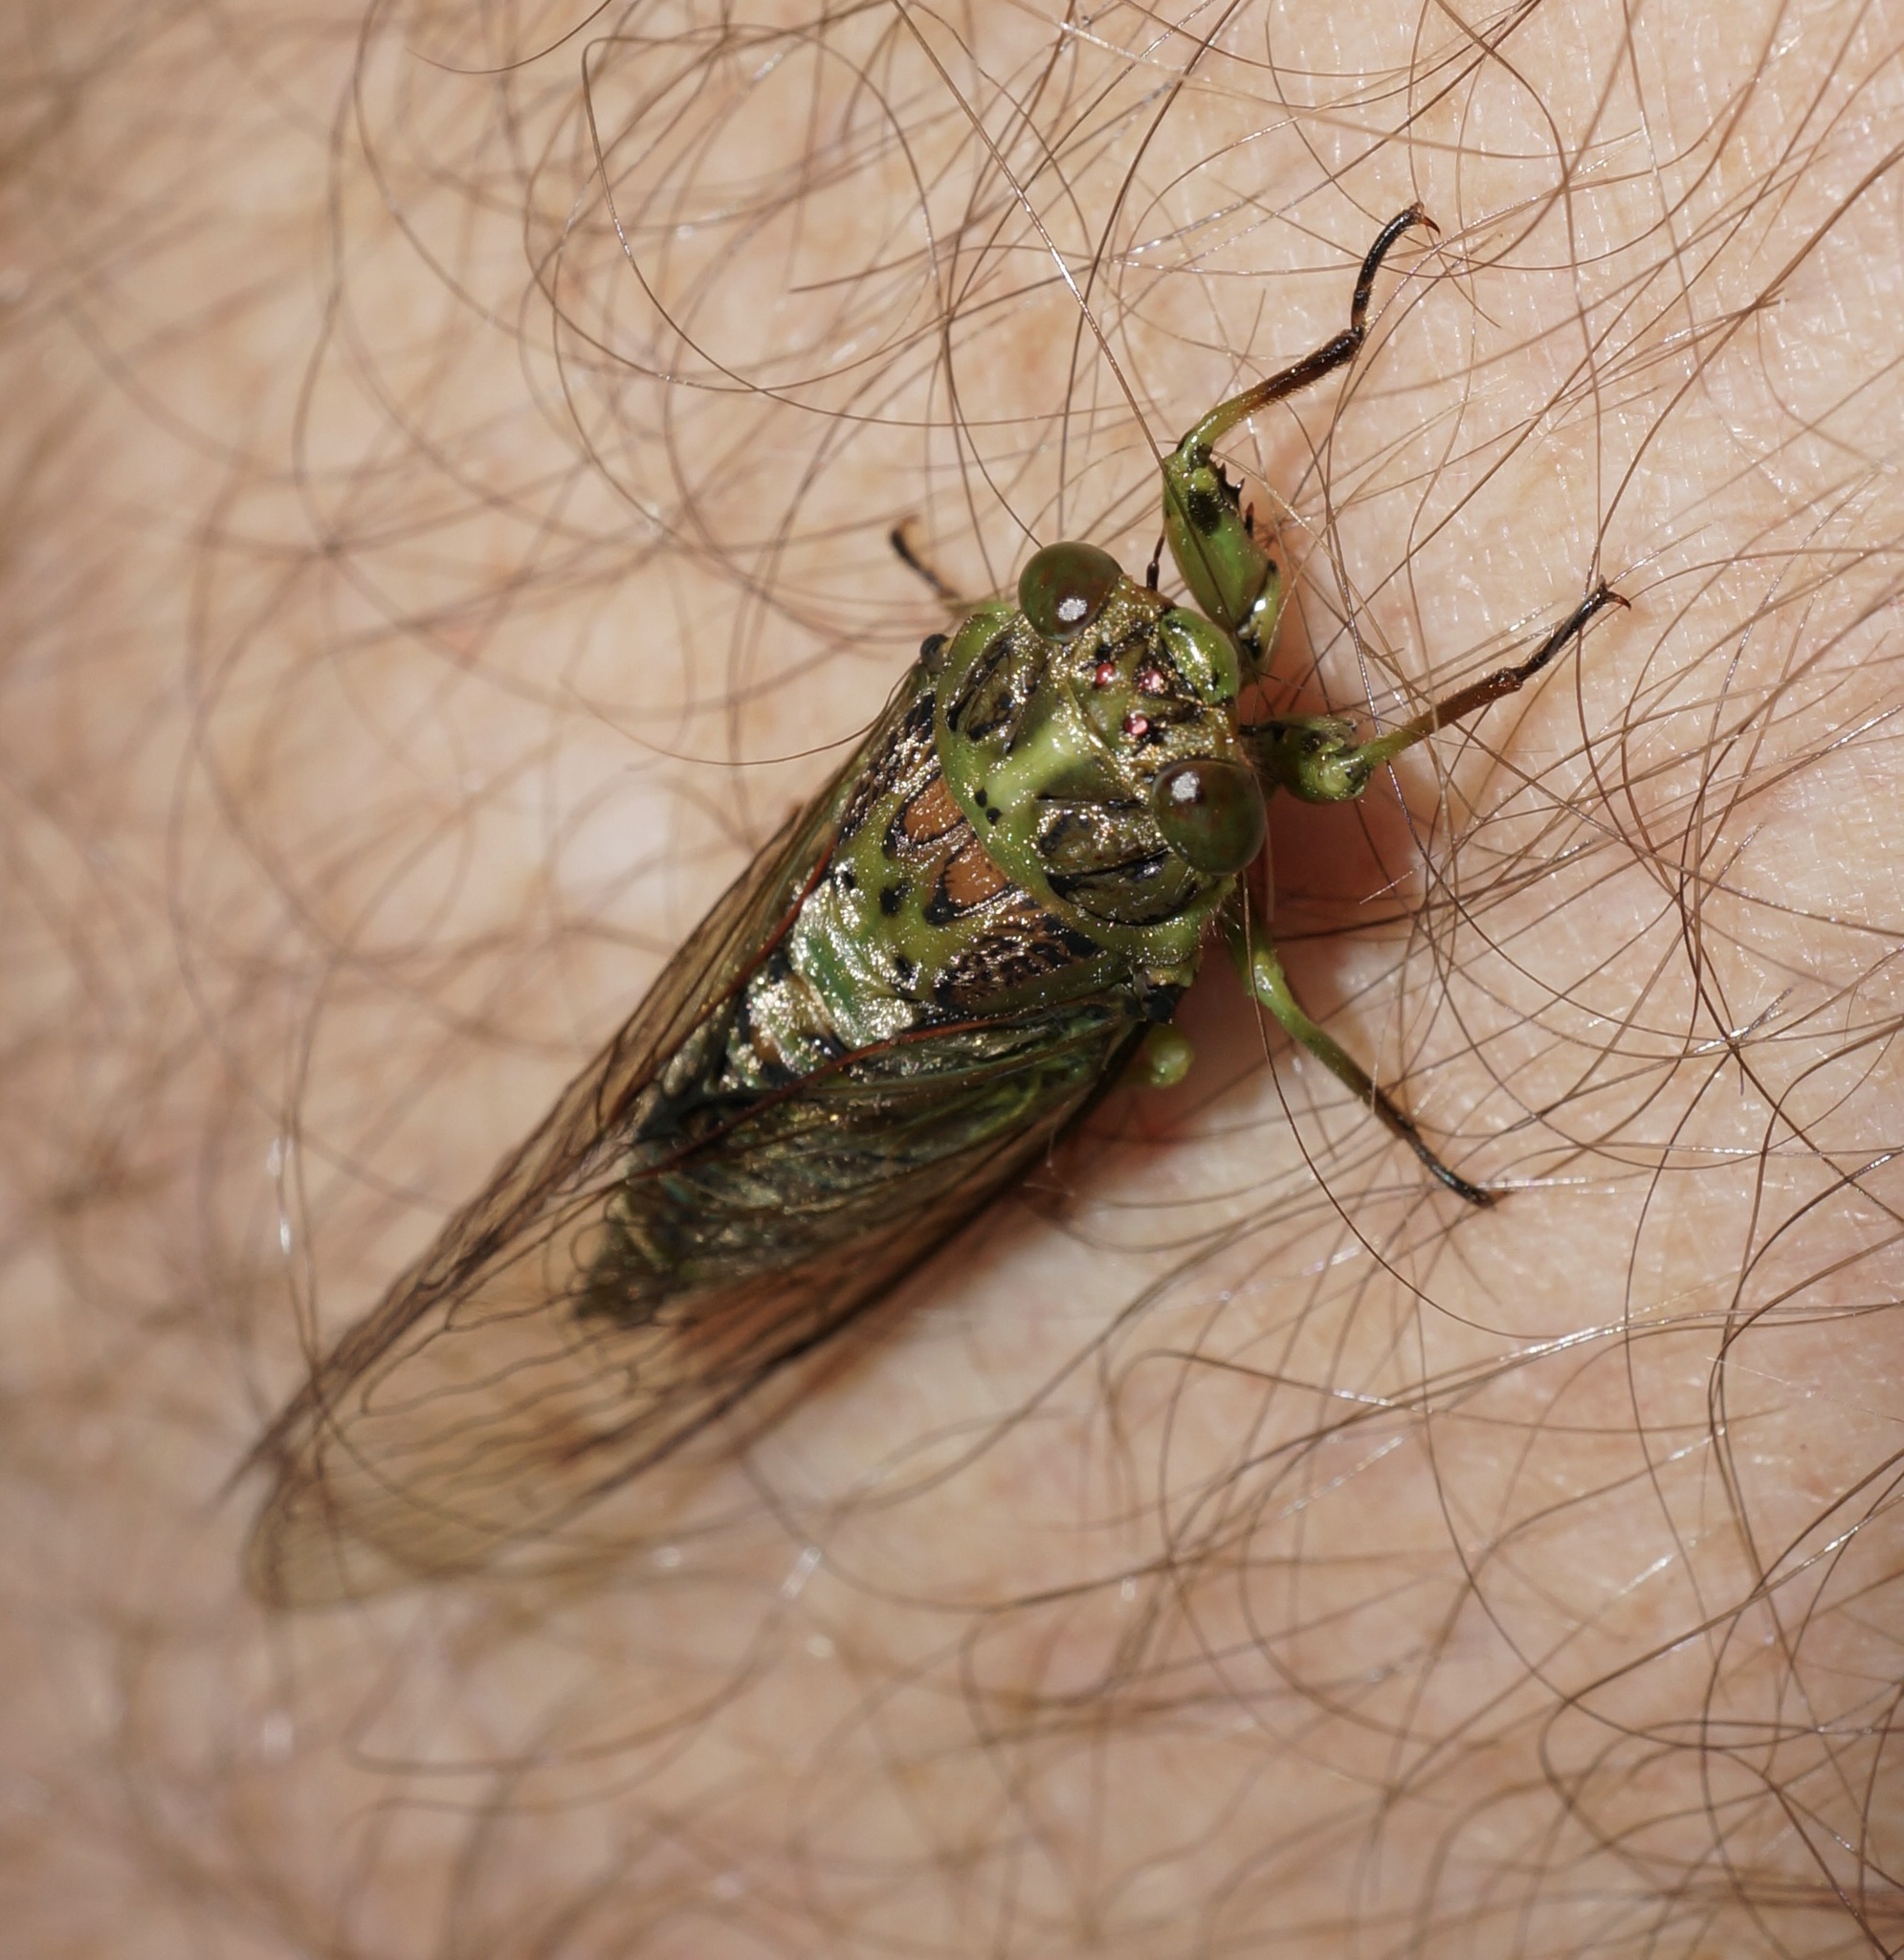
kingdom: Animalia
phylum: Arthropoda
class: Insecta
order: Hemiptera
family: Cicadidae
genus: Kikihia
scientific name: Kikihia scutellaris
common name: Lesser bronze cicada
